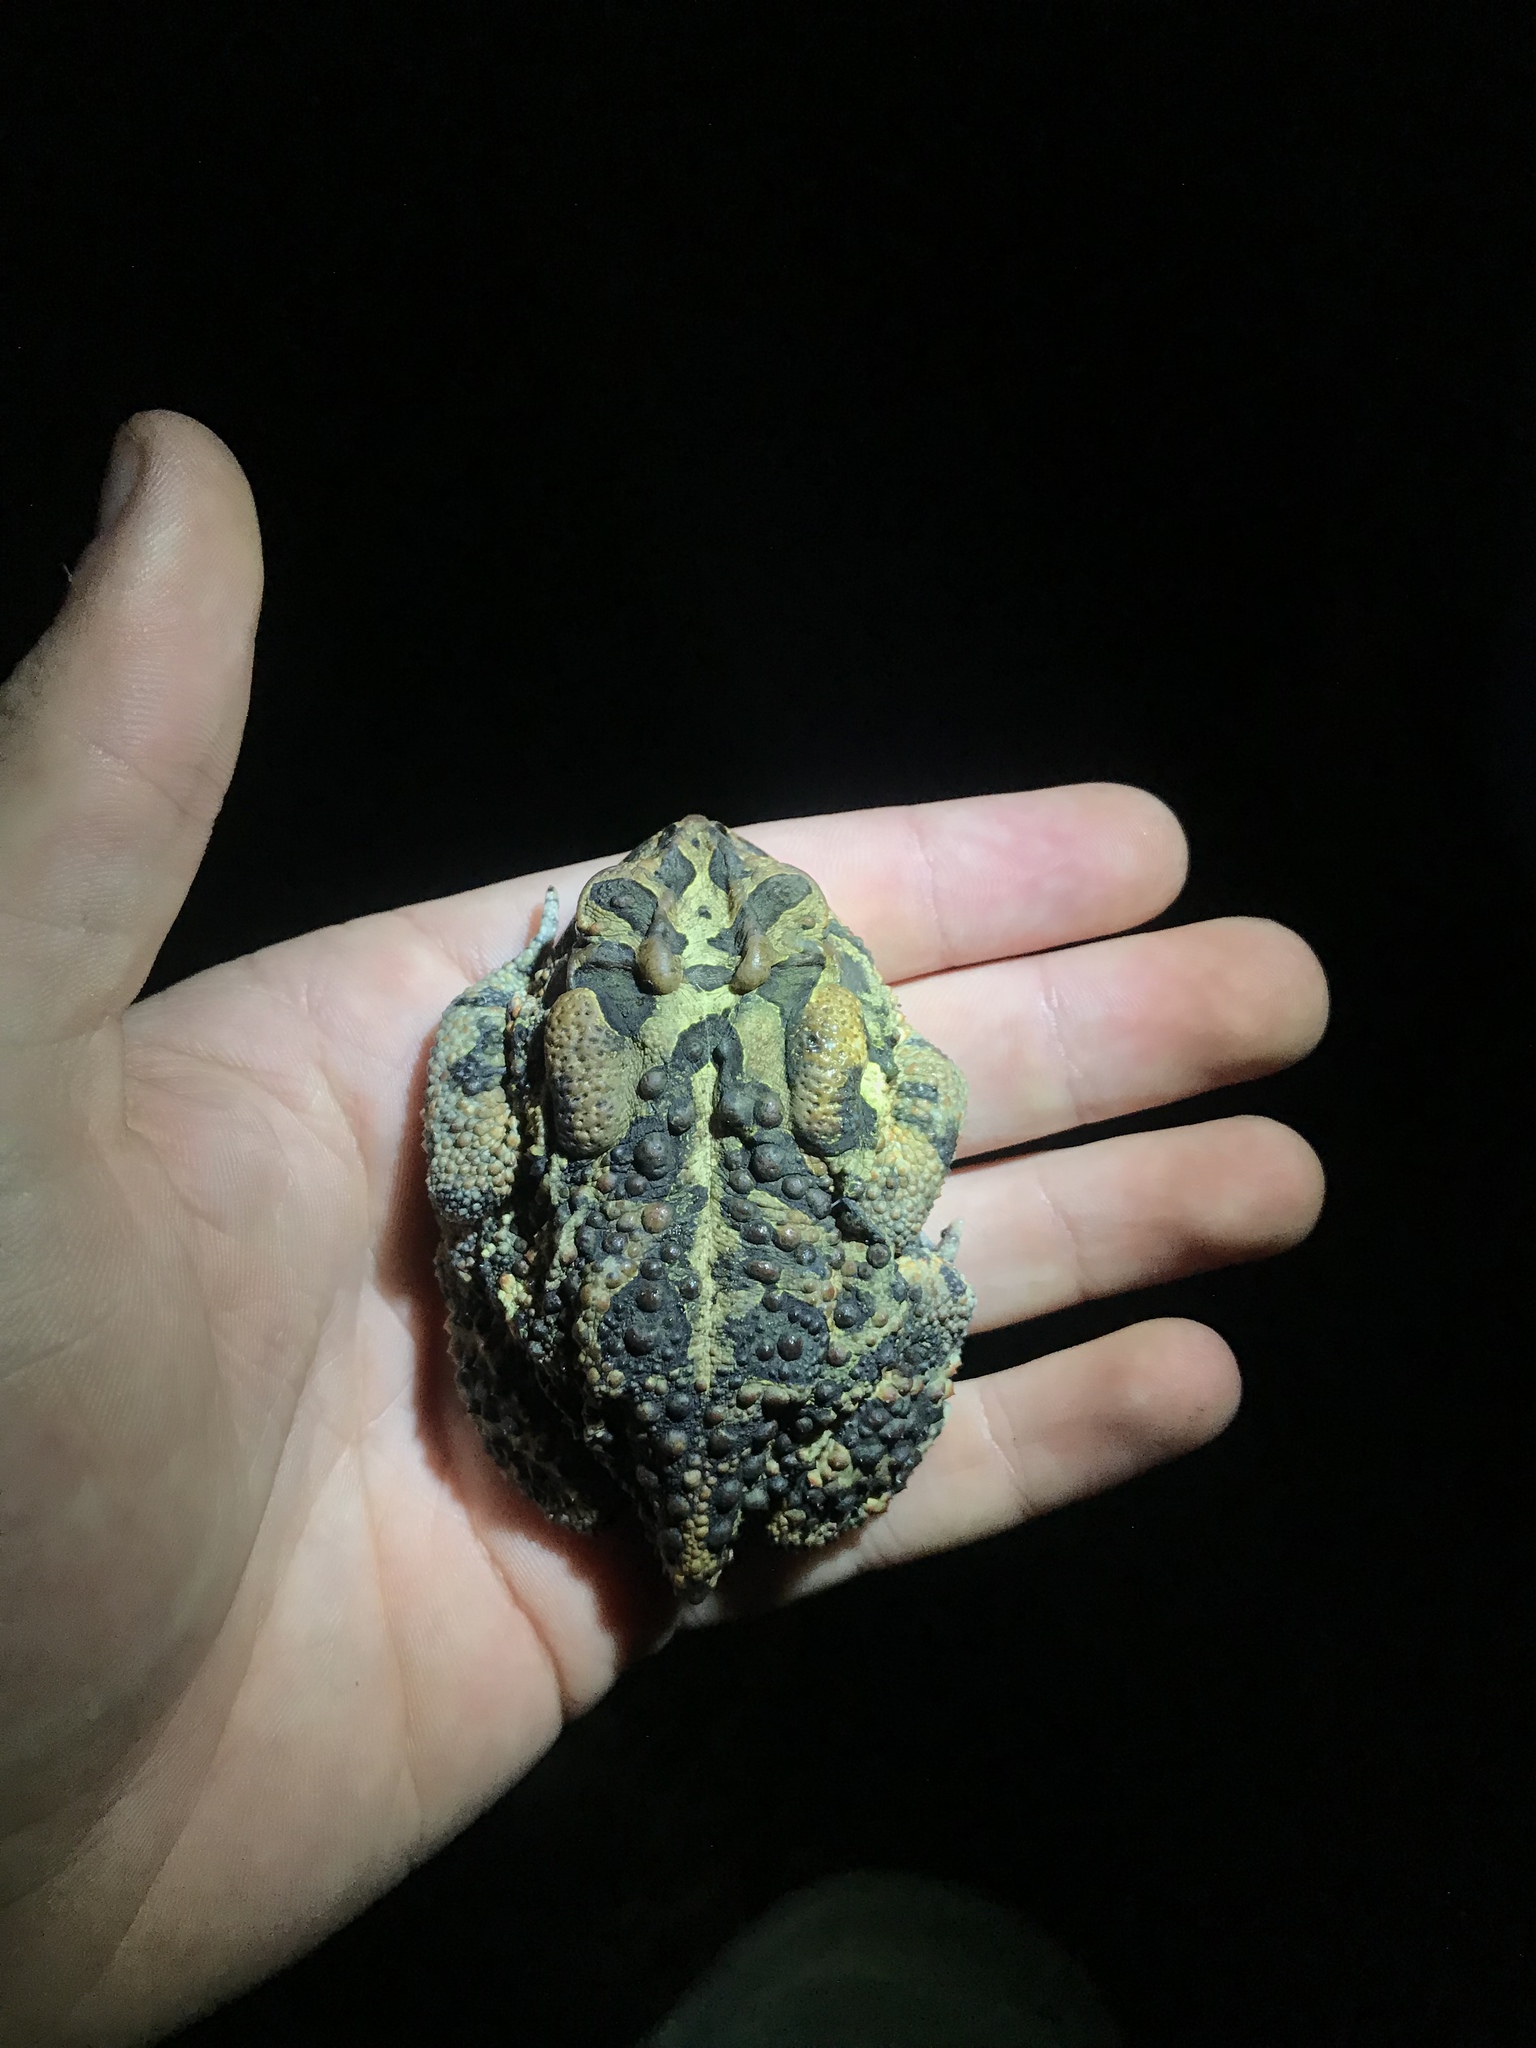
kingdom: Animalia
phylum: Chordata
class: Amphibia
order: Anura
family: Bufonidae
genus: Anaxyrus
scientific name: Anaxyrus terrestris
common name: Southern toad
